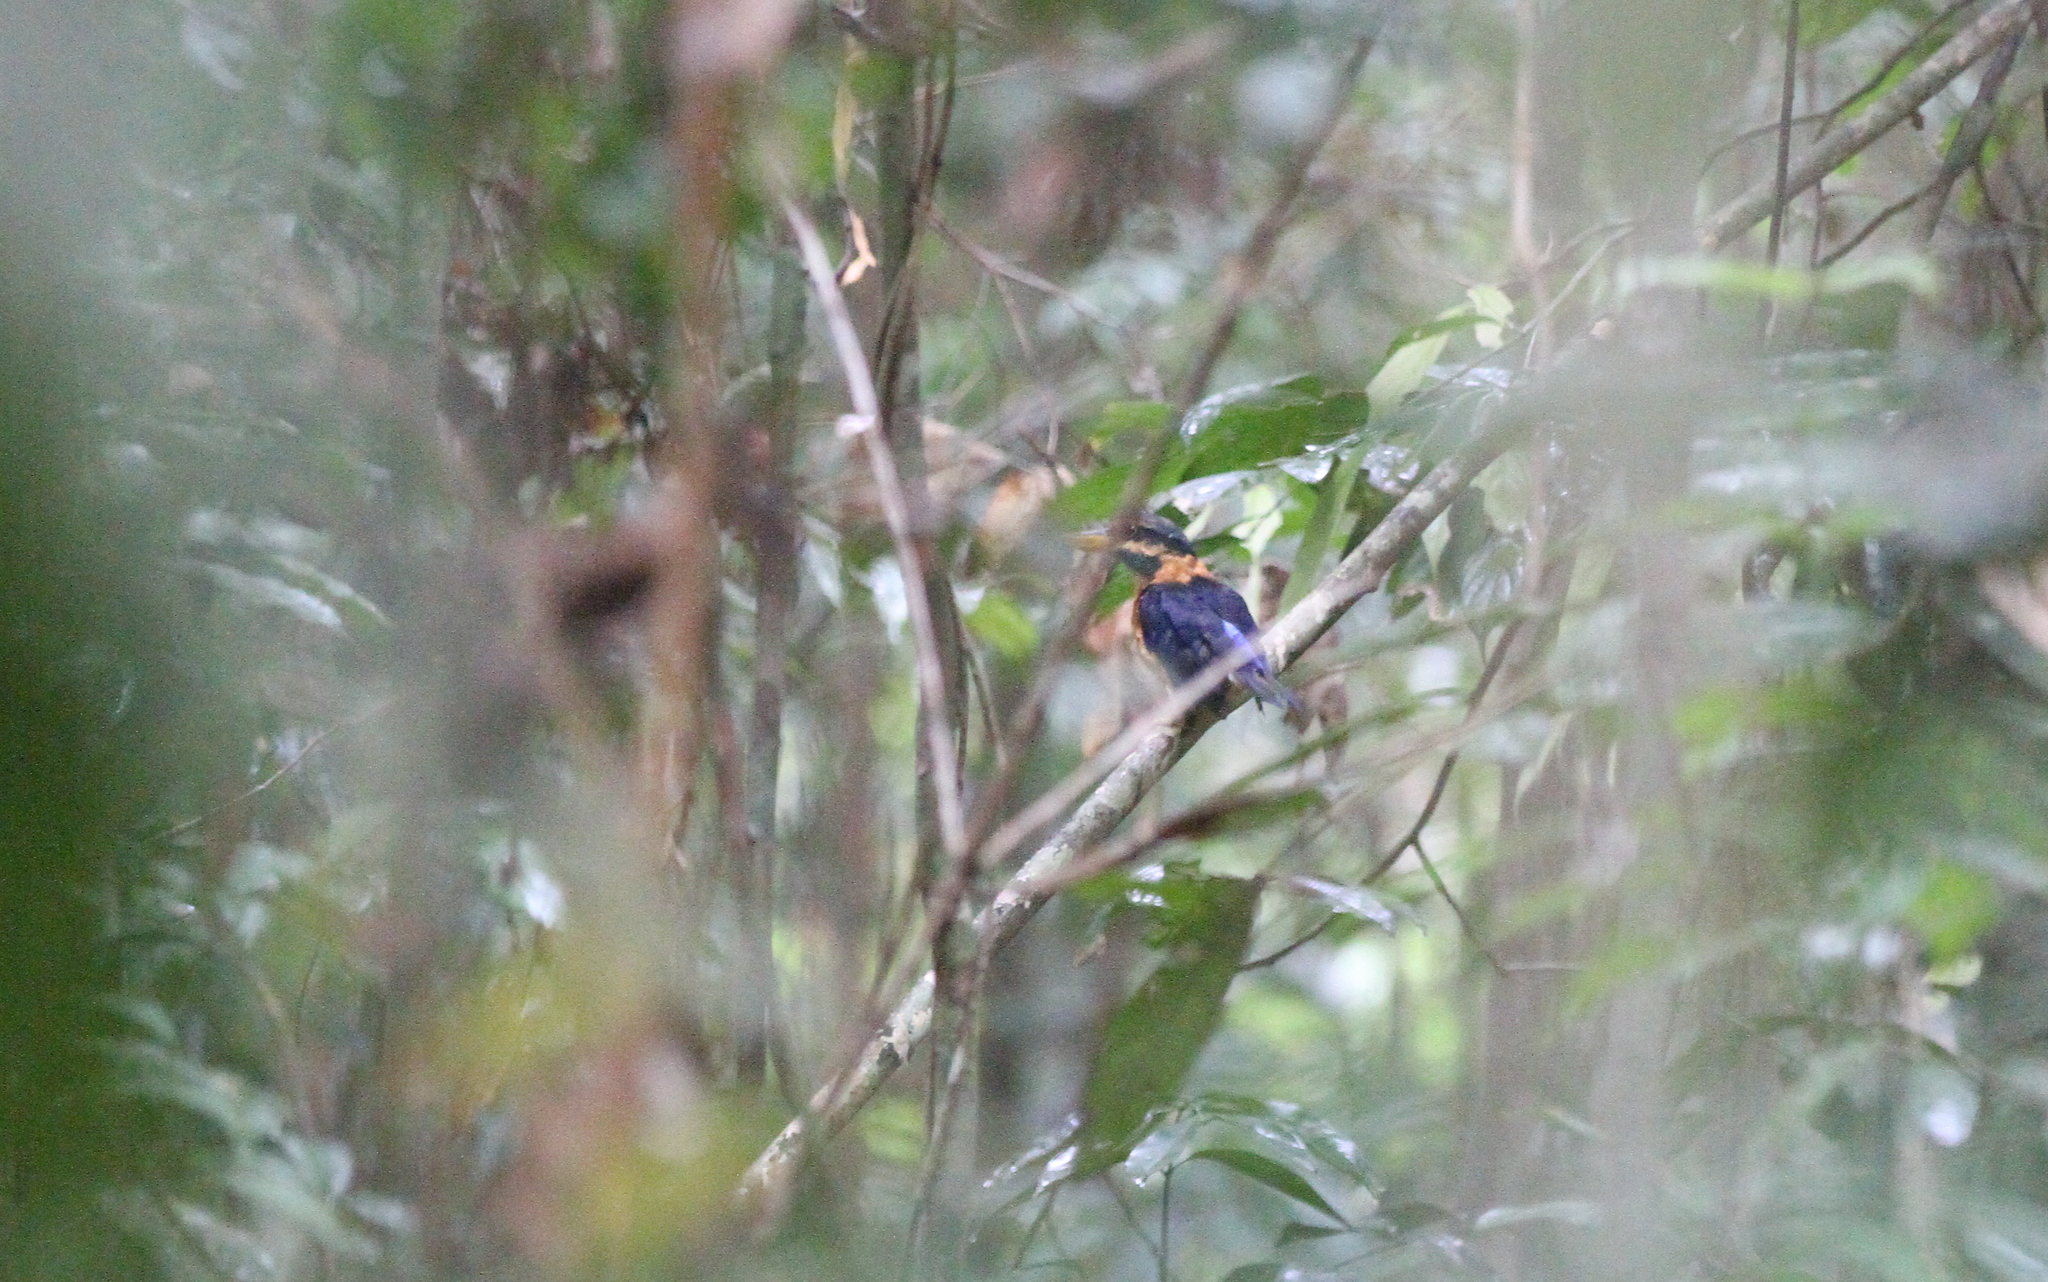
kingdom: Animalia
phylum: Chordata
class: Aves
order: Coraciiformes
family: Alcedinidae
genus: Actenoides
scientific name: Actenoides concretus
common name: Rufous-collared kingfisher
